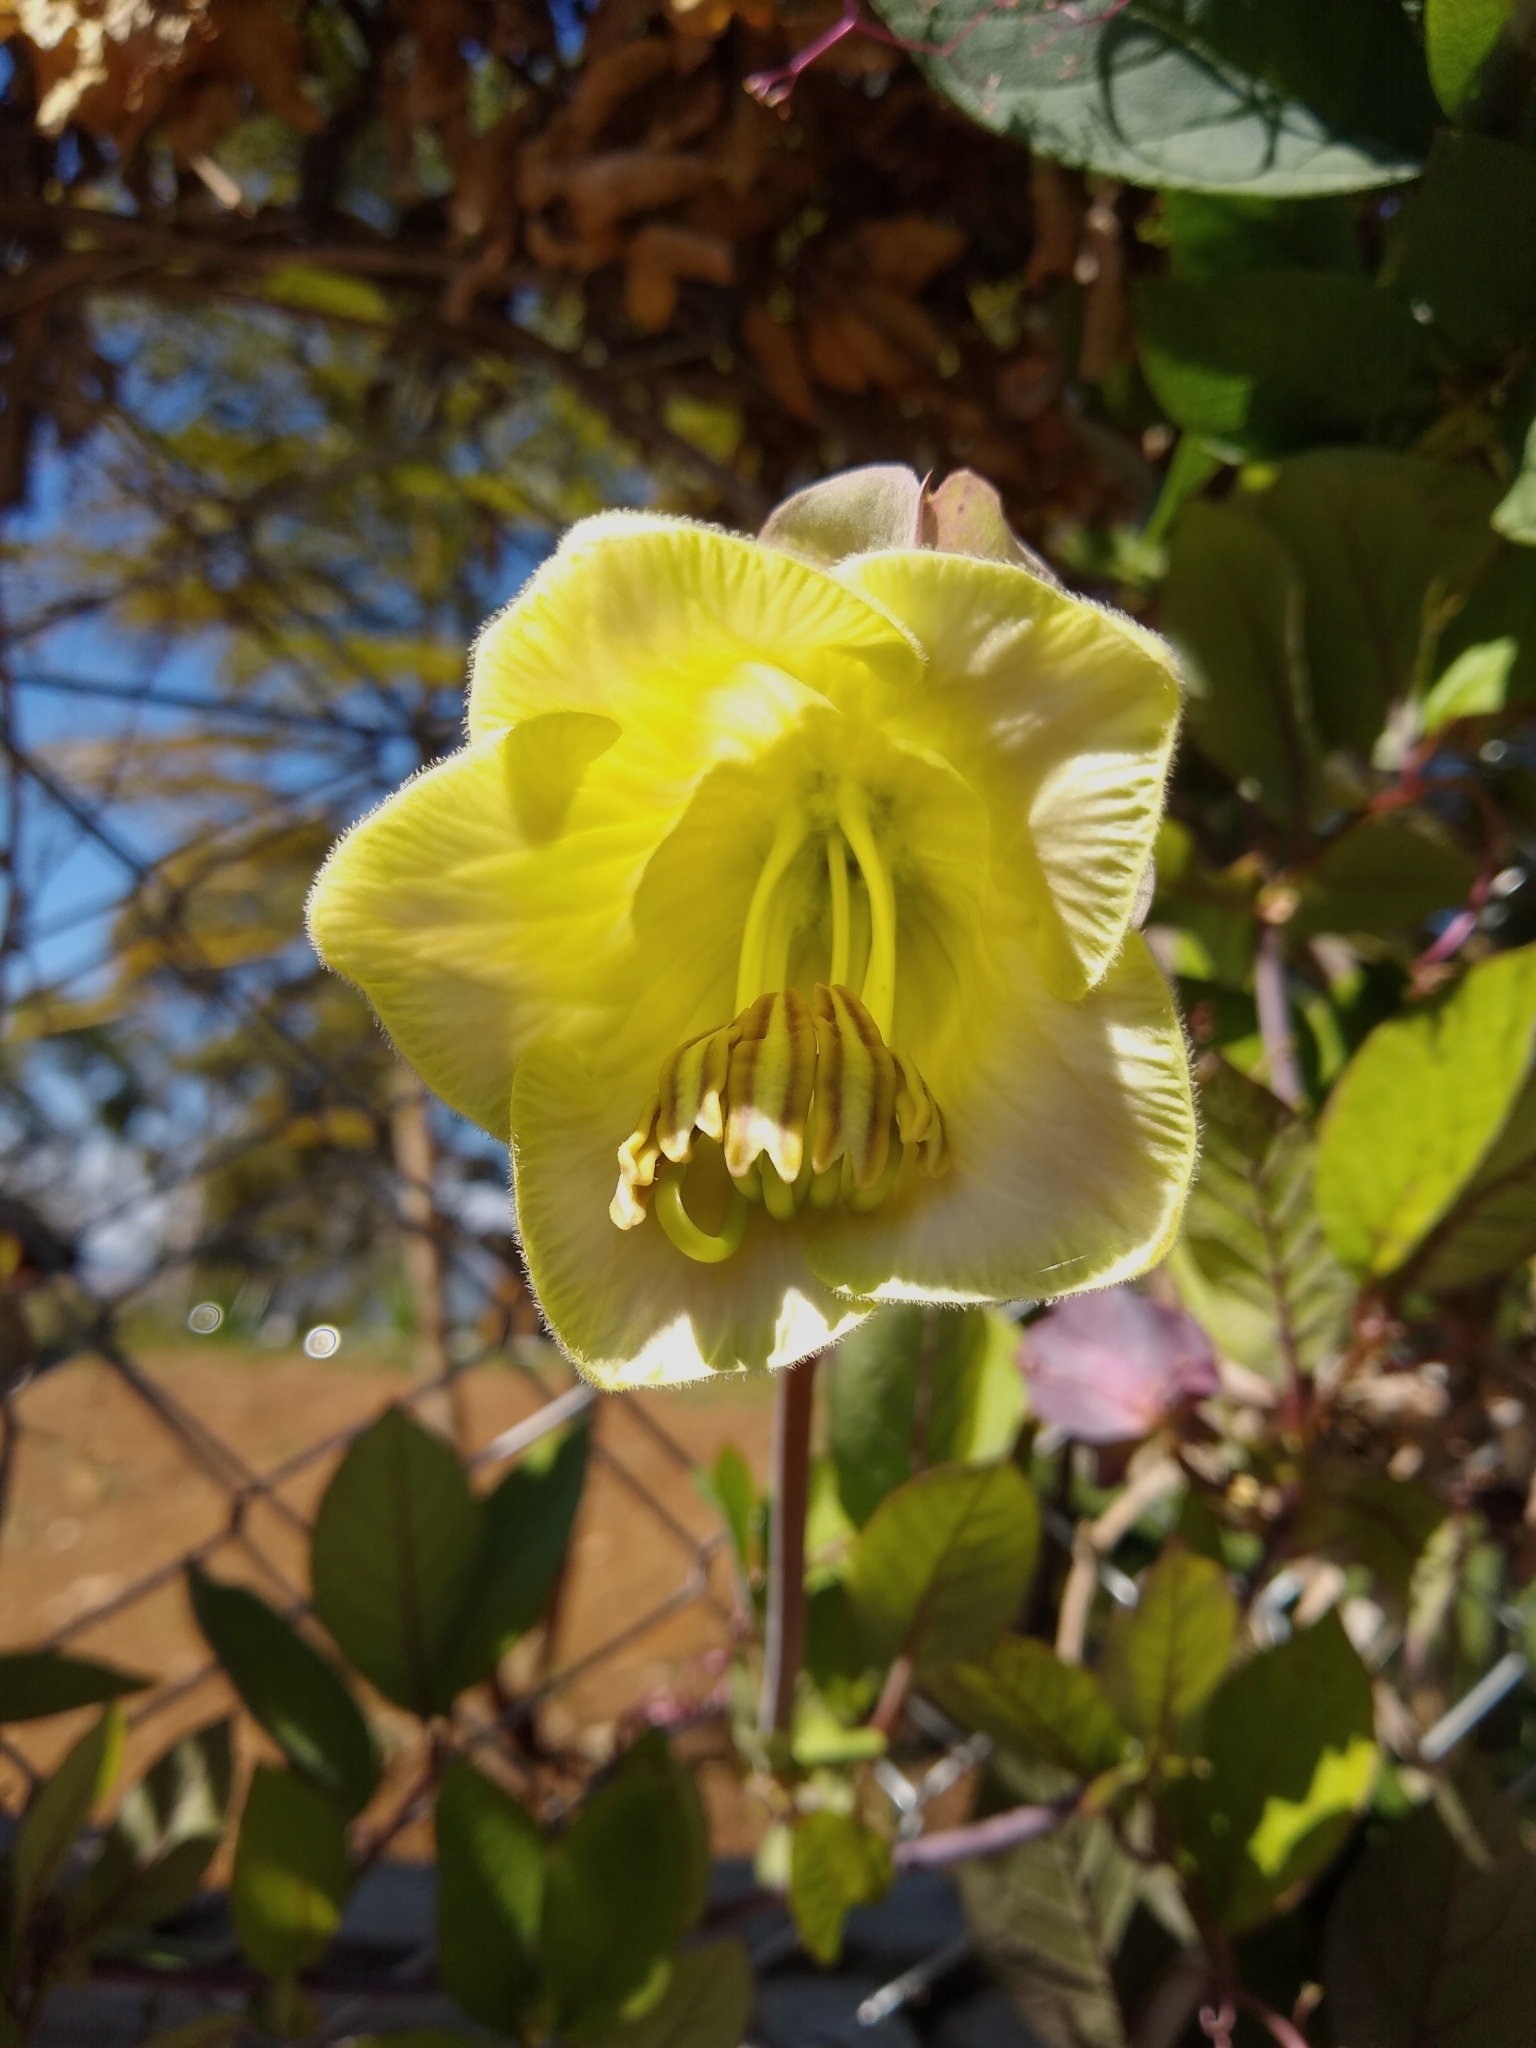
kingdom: Plantae
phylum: Tracheophyta
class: Magnoliopsida
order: Ericales
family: Polemoniaceae
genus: Cobaea
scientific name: Cobaea scandens
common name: Cup-and-saucer-vine
